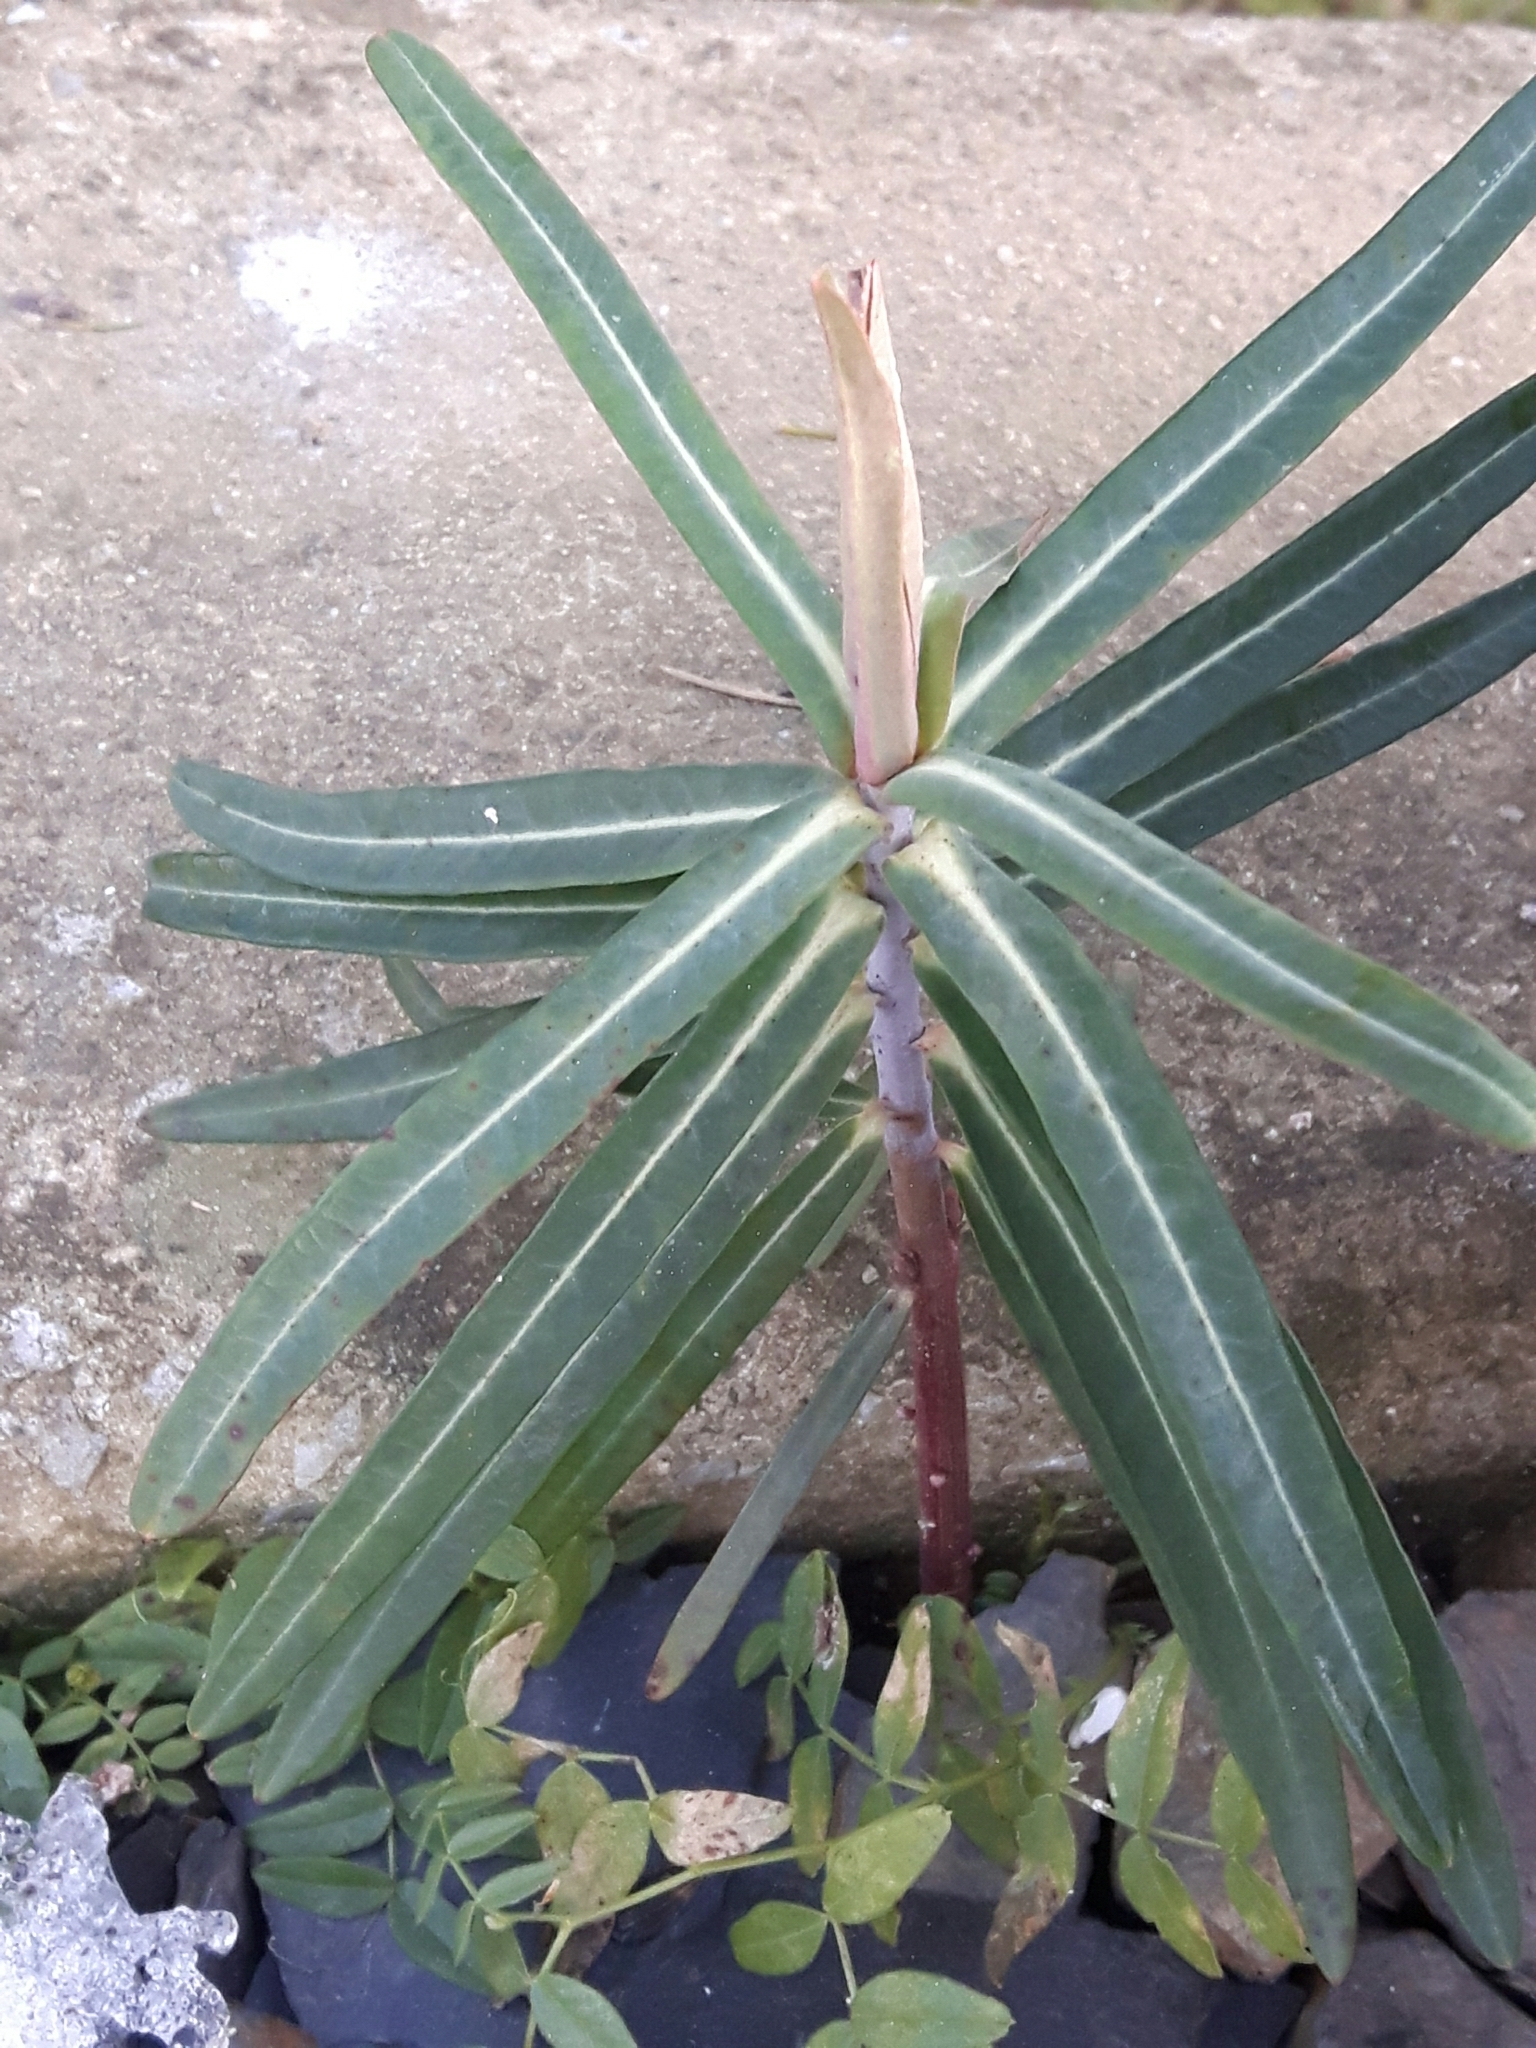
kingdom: Plantae
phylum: Tracheophyta
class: Magnoliopsida
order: Malpighiales
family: Euphorbiaceae
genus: Euphorbia
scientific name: Euphorbia lathyris
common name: Caper spurge
